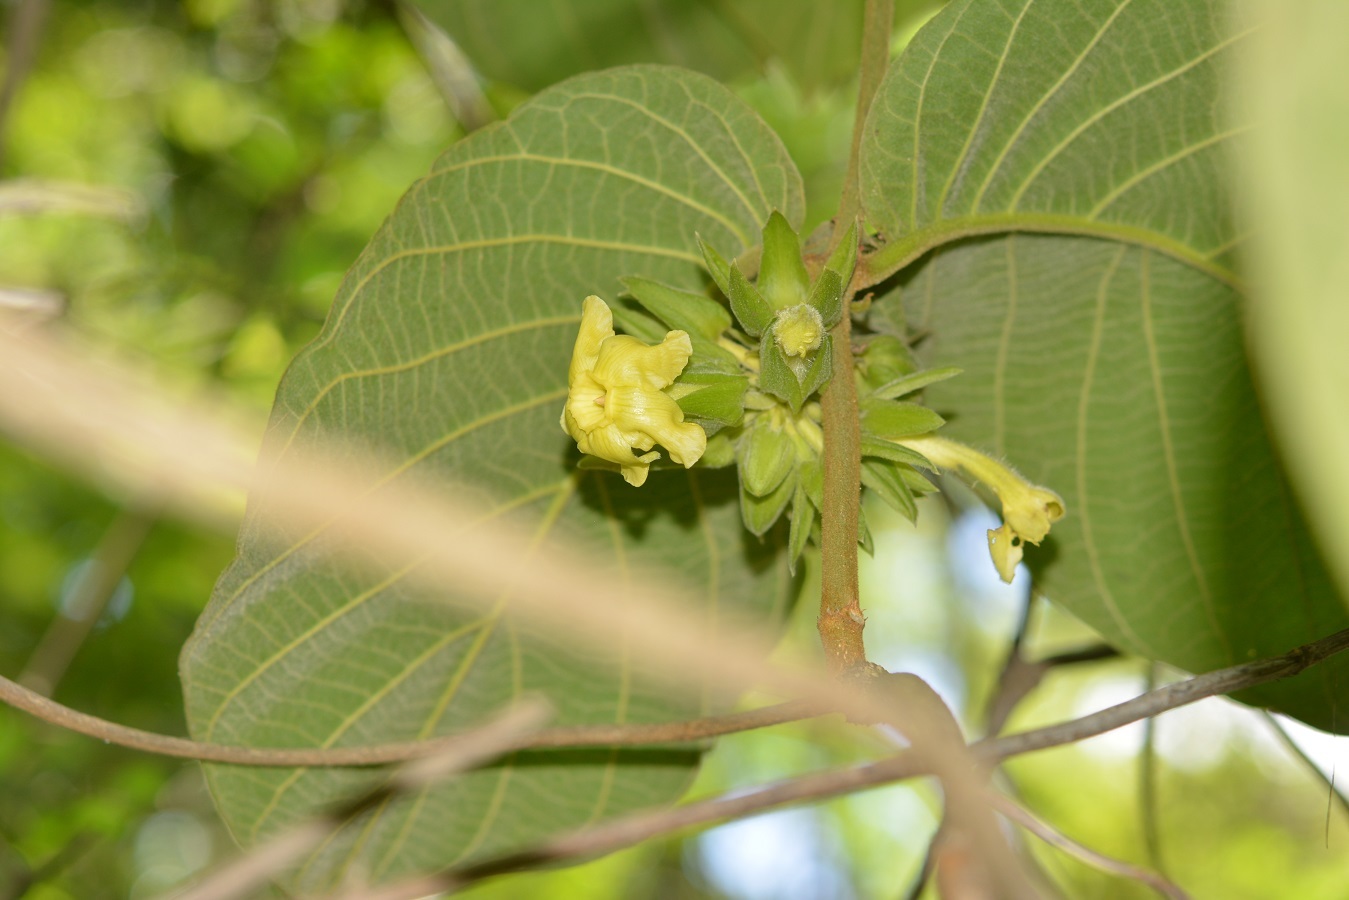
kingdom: Plantae
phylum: Tracheophyta
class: Magnoliopsida
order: Gentianales
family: Apocynaceae
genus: Prestonia
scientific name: Prestonia mexicana
